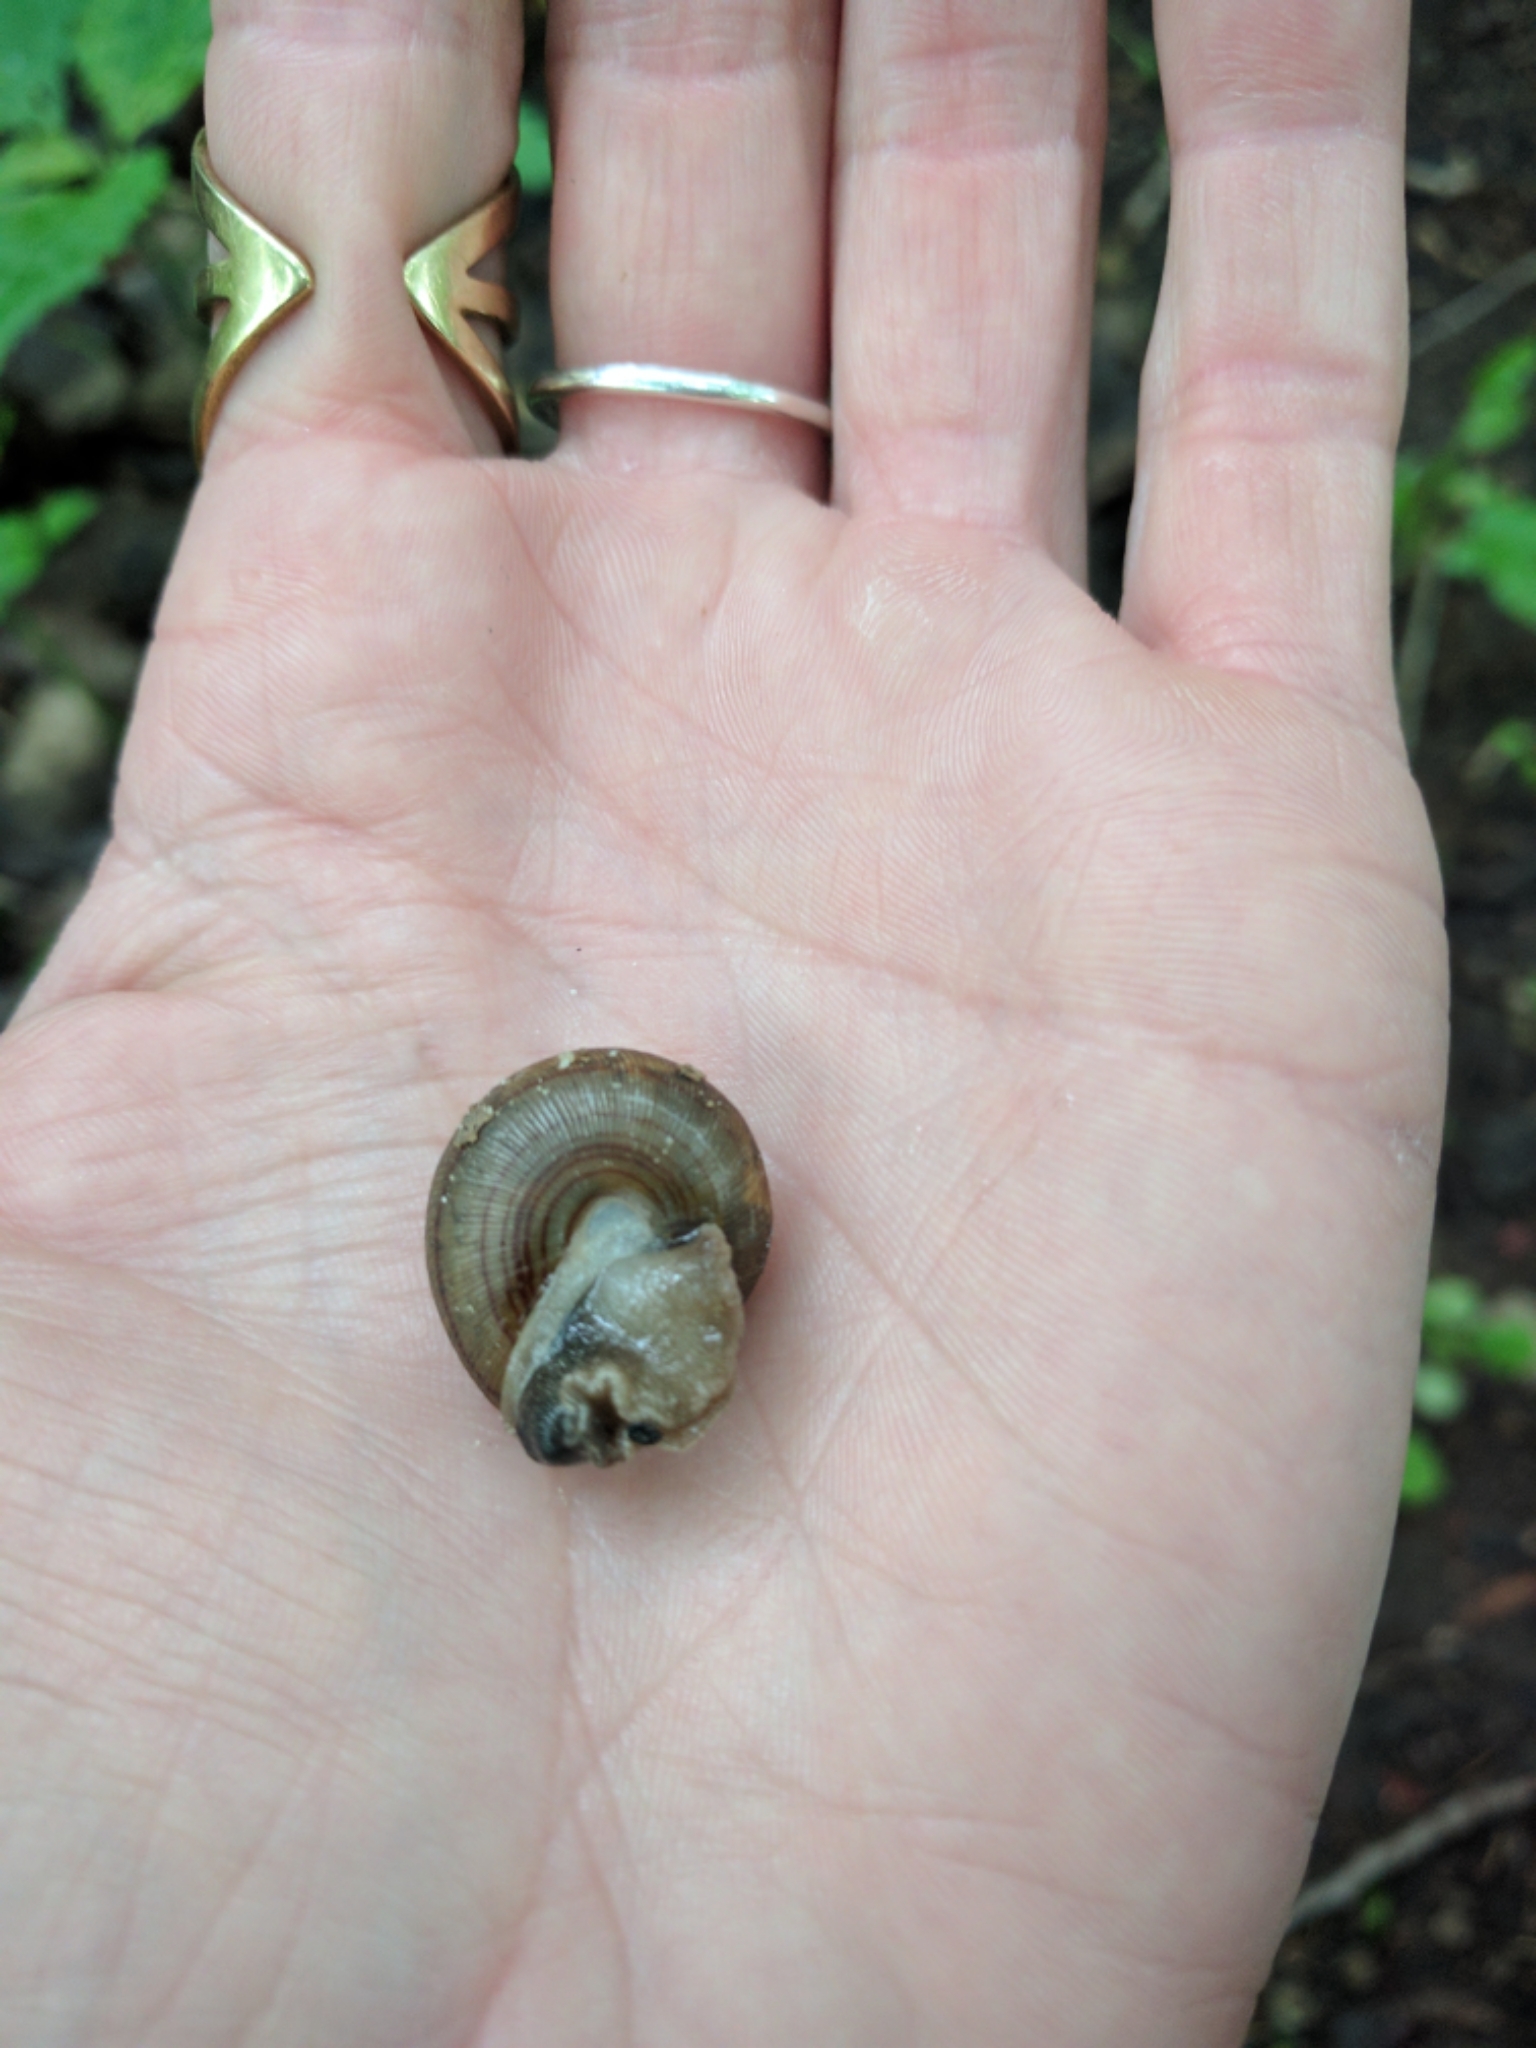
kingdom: Animalia
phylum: Mollusca
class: Gastropoda
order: Stylommatophora
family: Polygyridae
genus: Webbhelix
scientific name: Webbhelix multilineata
